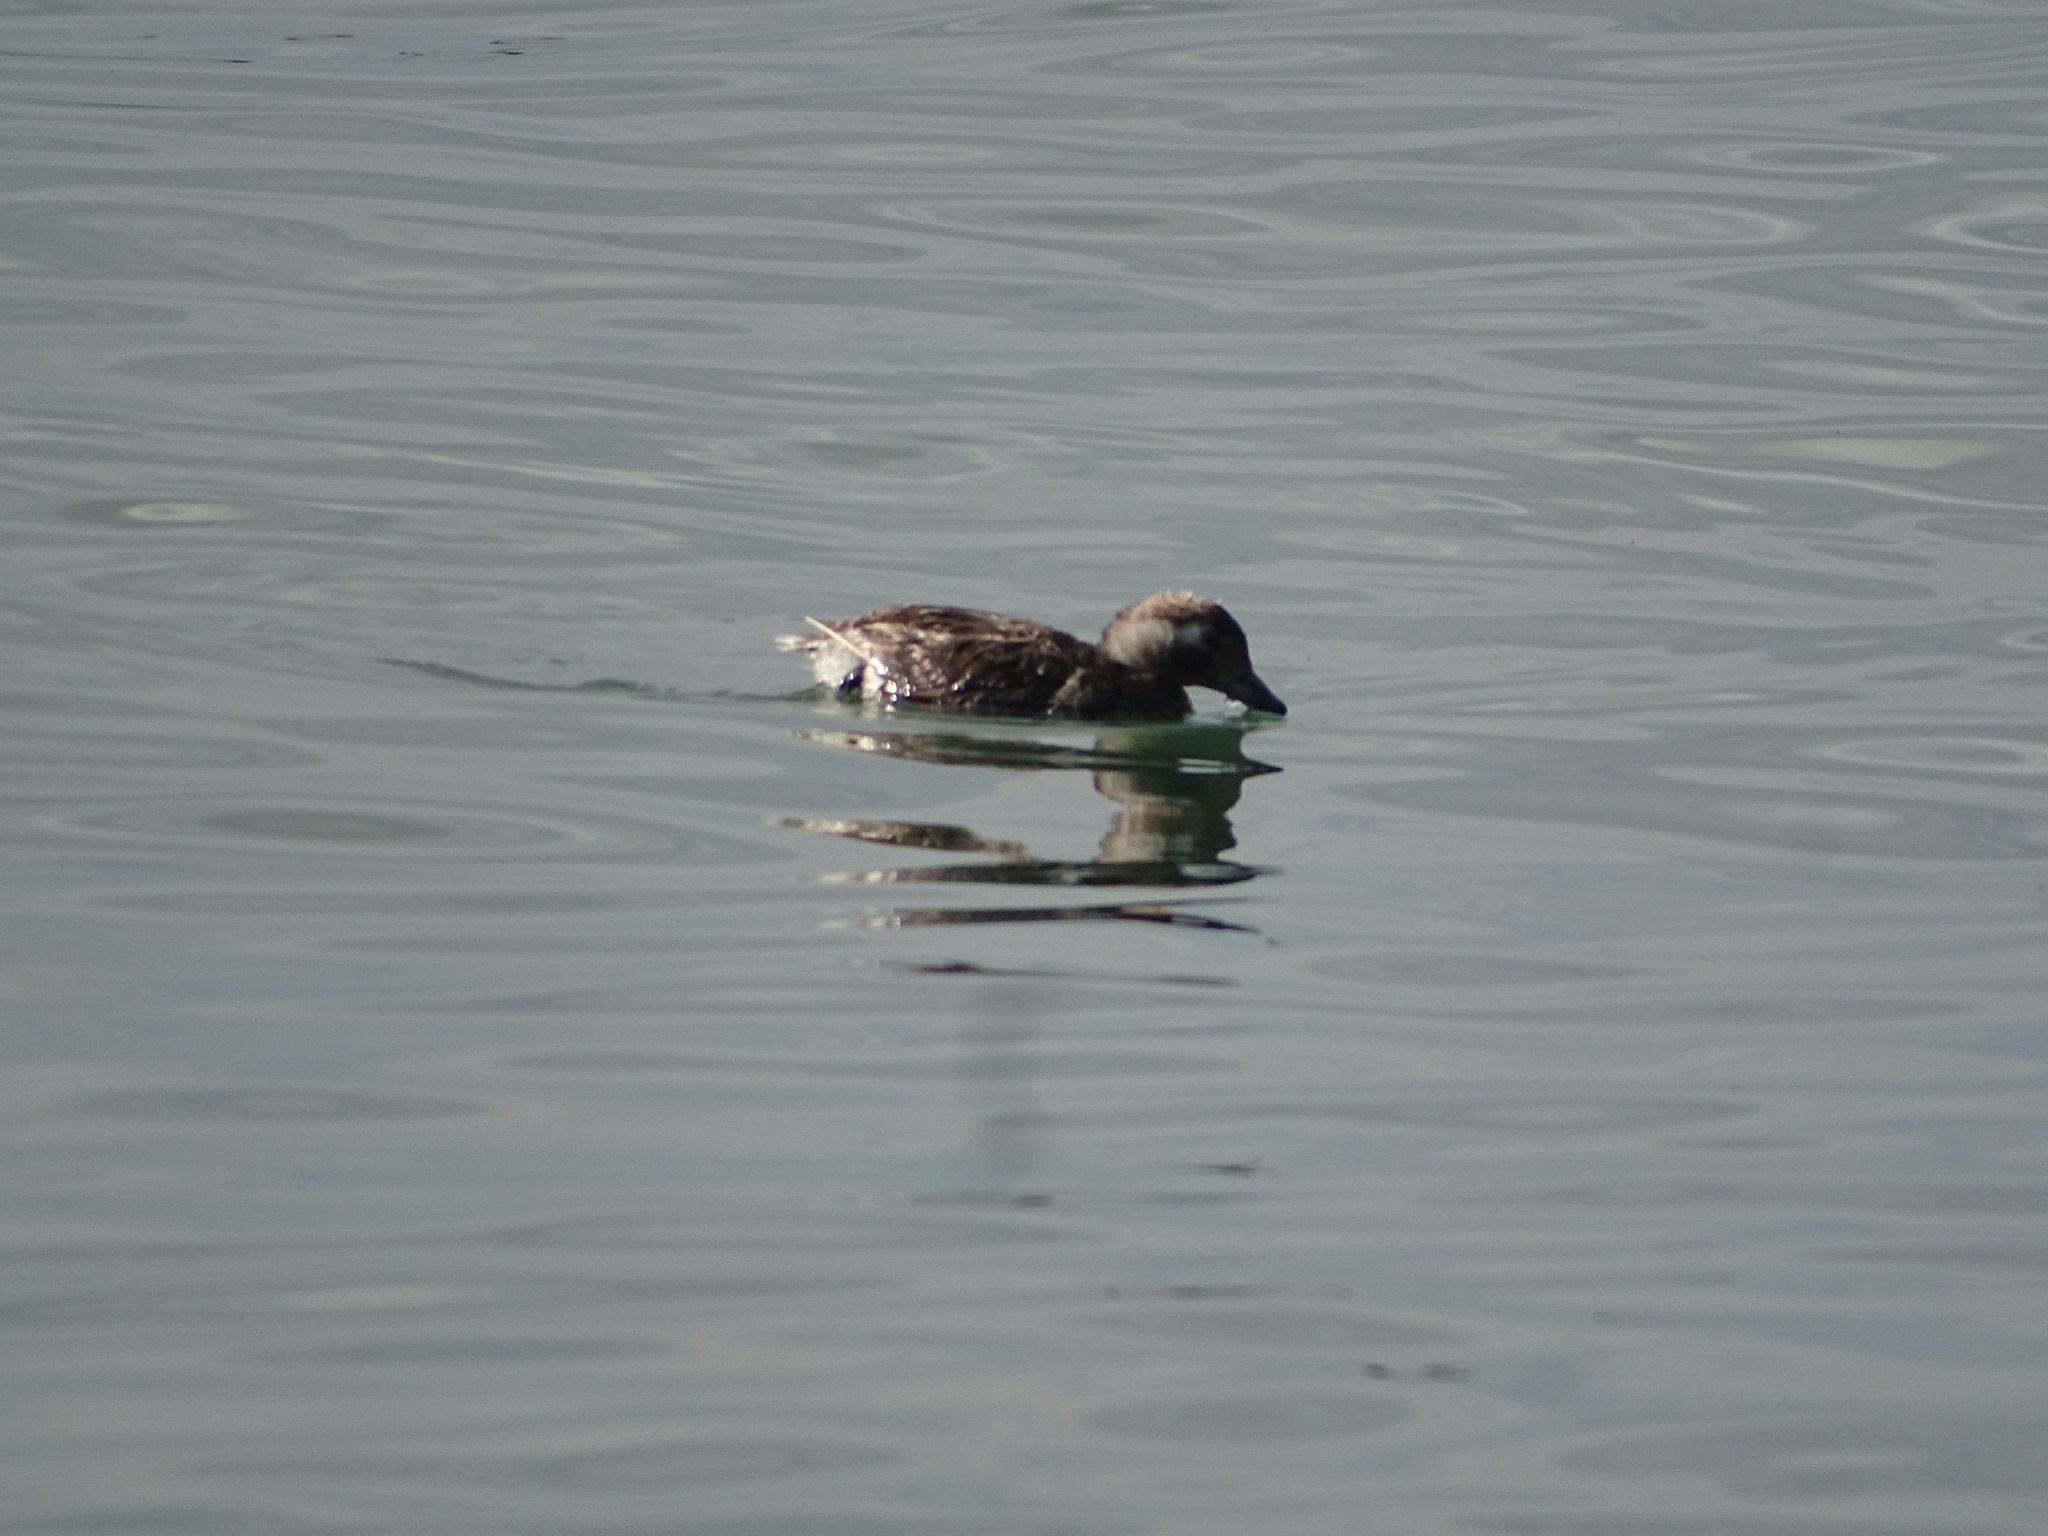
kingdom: Animalia
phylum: Chordata
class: Aves
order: Anseriformes
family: Anatidae
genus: Clangula
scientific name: Clangula hyemalis
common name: Long-tailed duck
